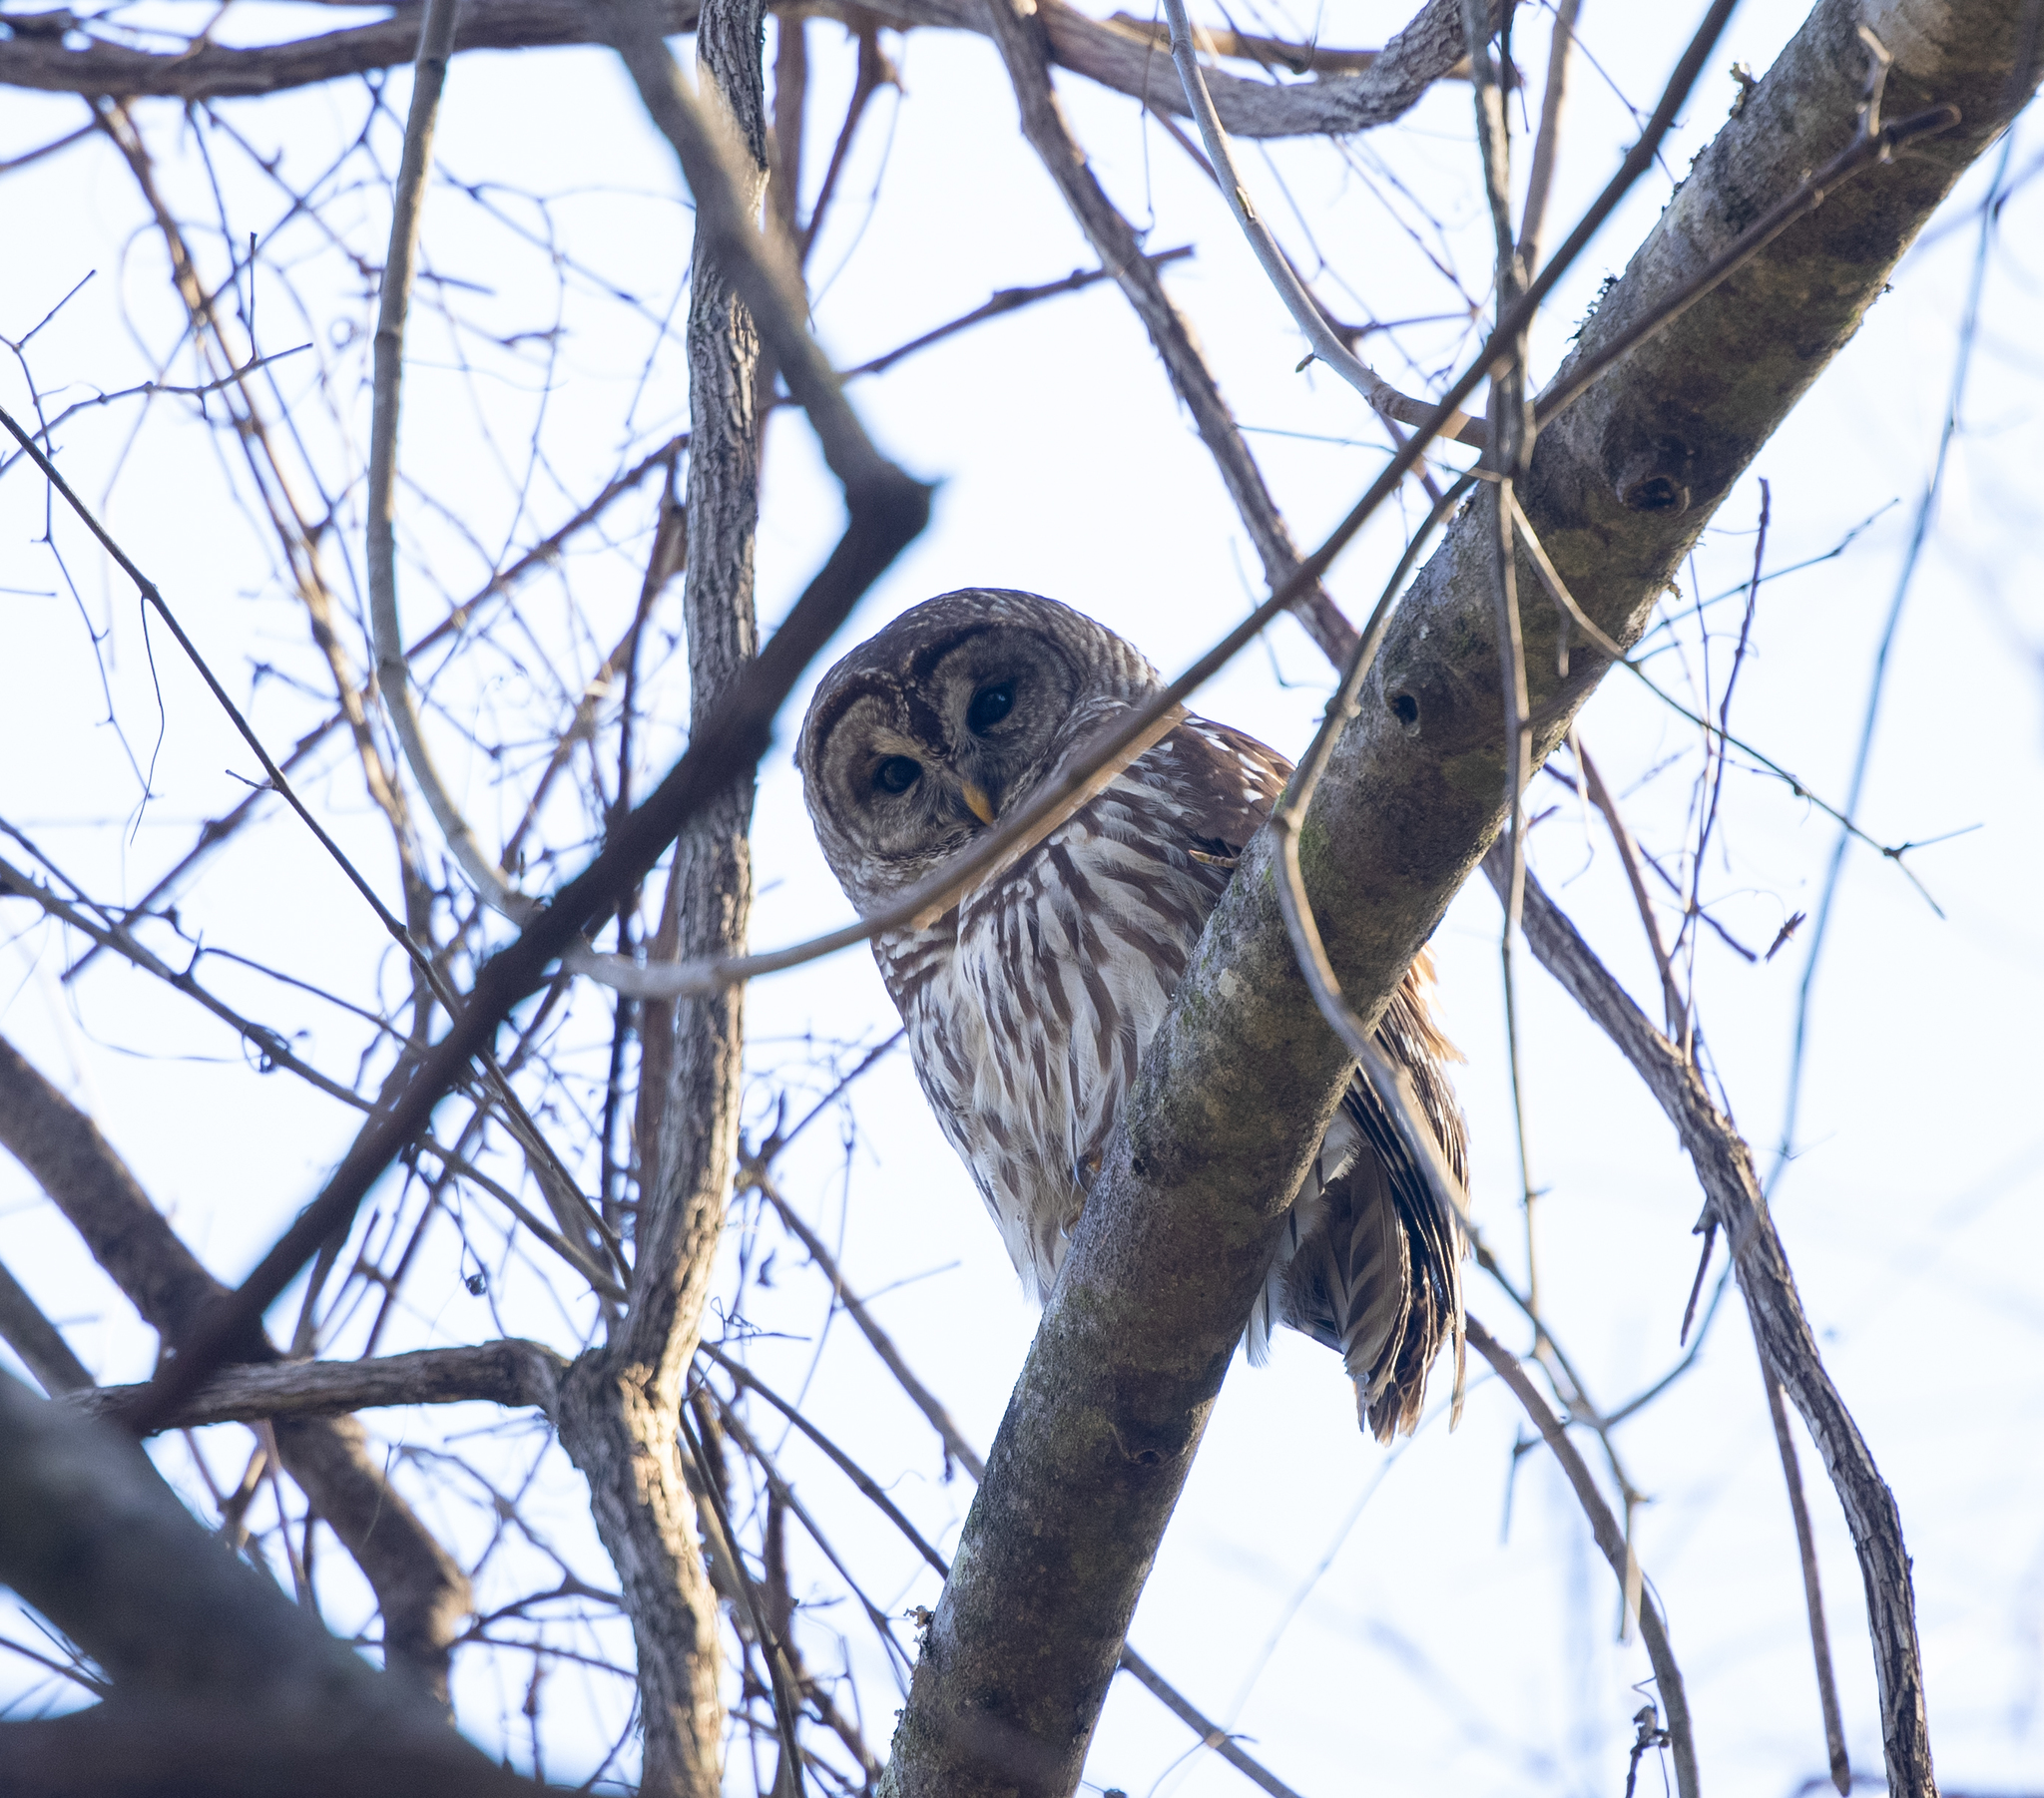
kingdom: Animalia
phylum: Chordata
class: Aves
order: Strigiformes
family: Strigidae
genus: Strix
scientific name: Strix varia
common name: Barred owl
